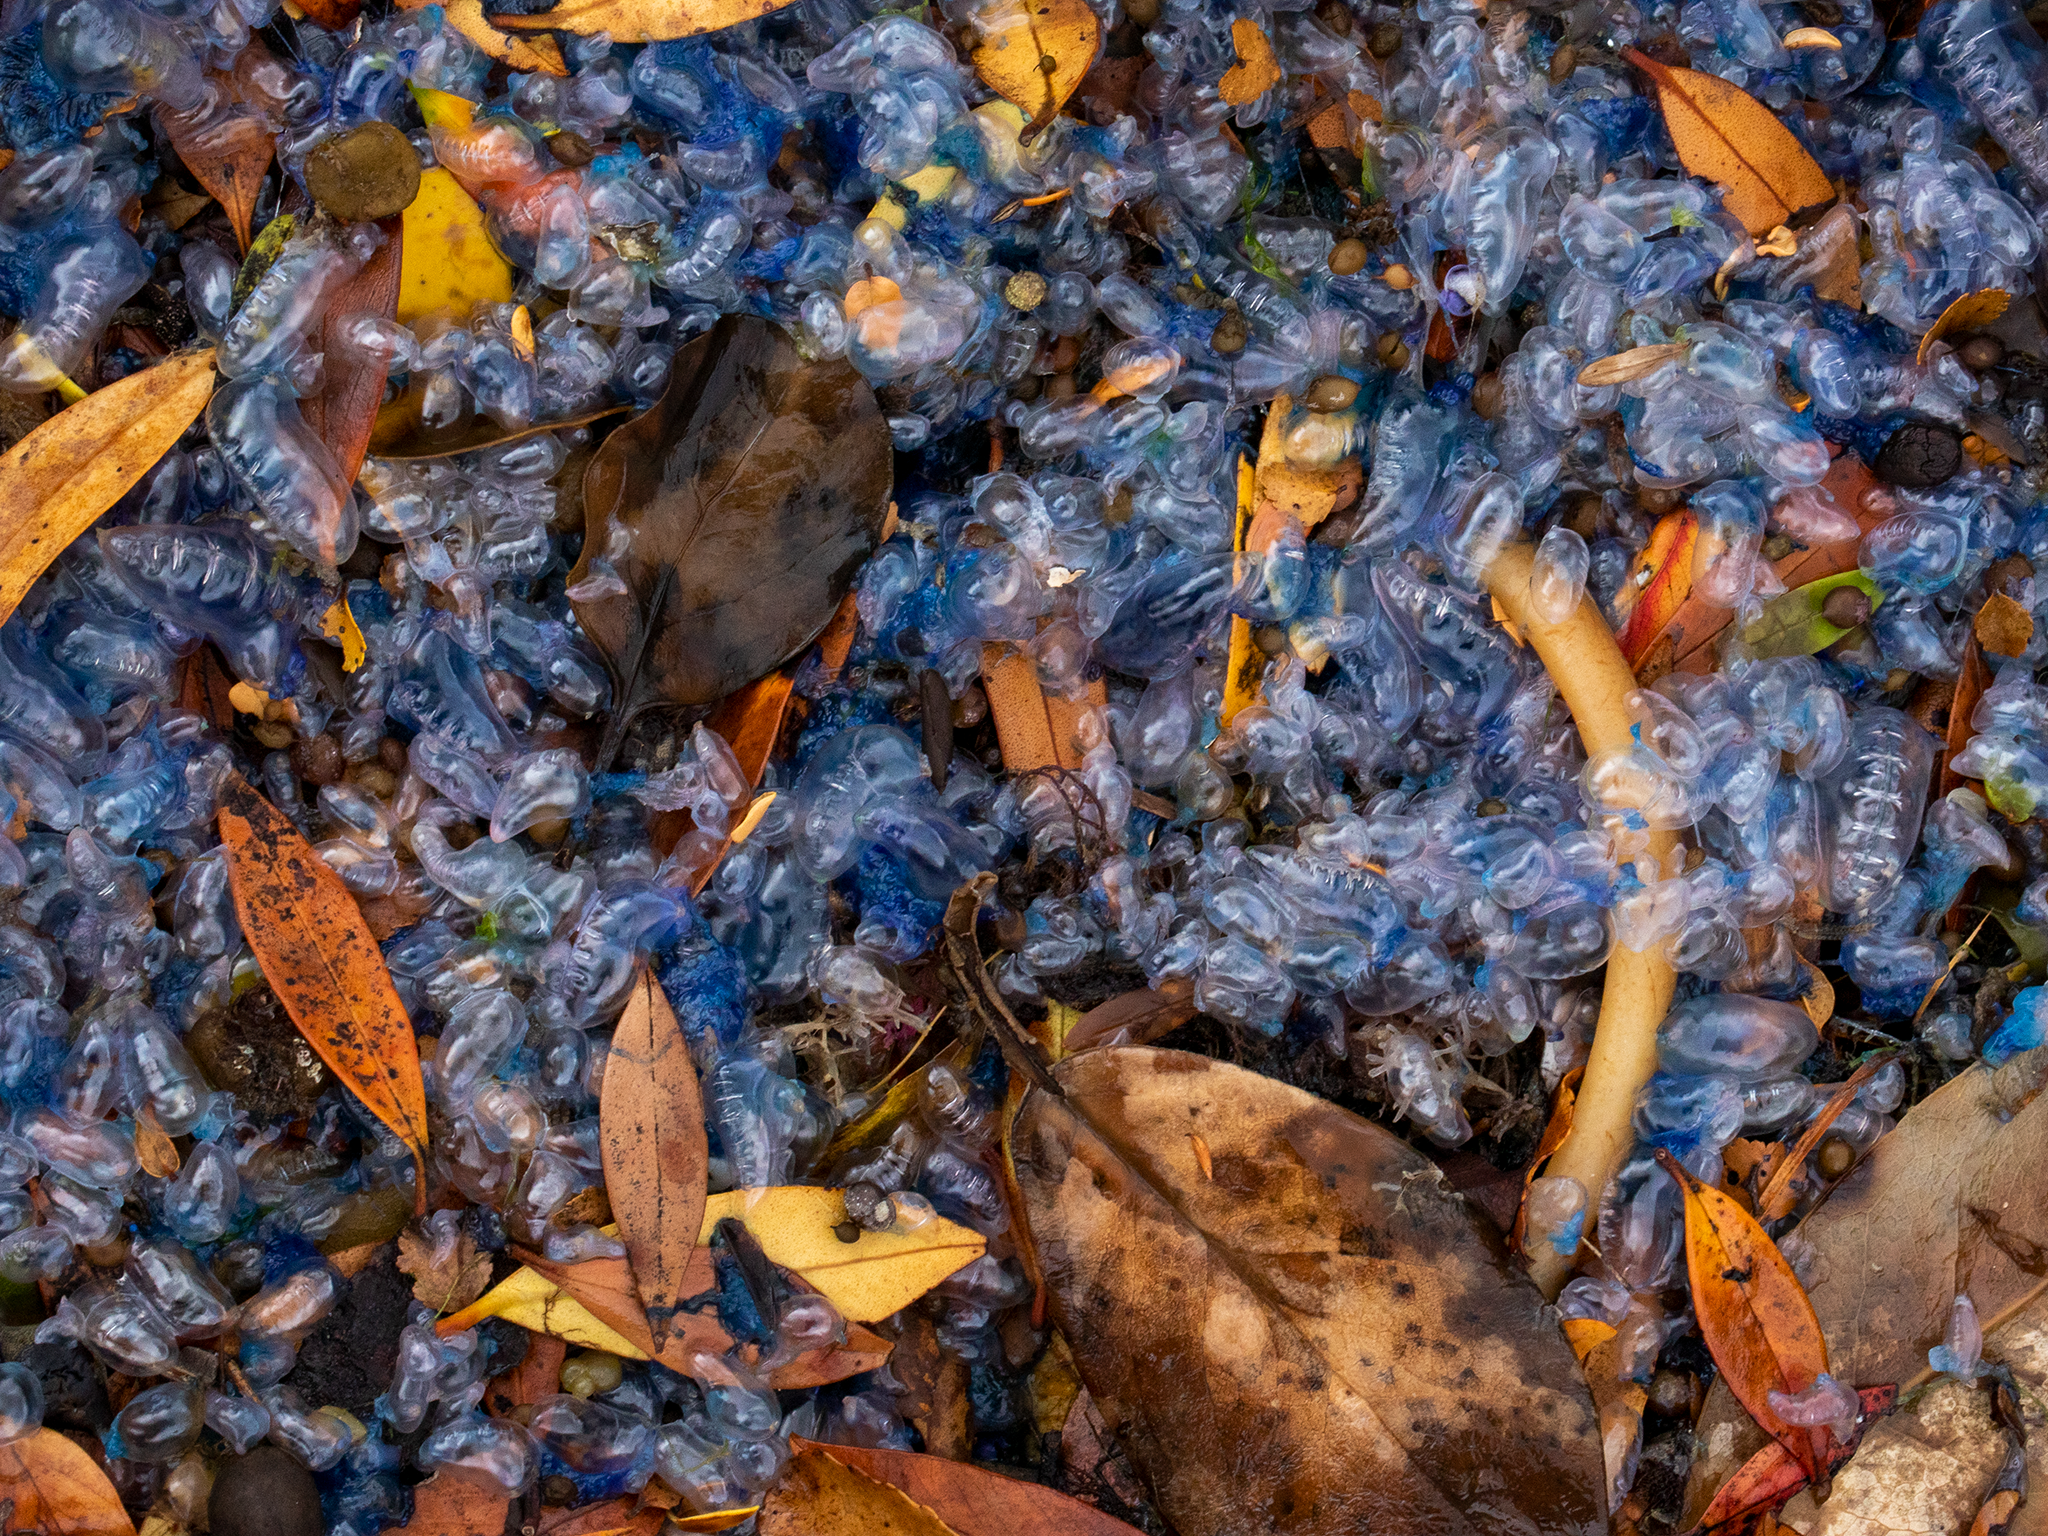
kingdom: Animalia
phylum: Cnidaria
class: Hydrozoa
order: Siphonophorae
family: Physaliidae
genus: Physalia
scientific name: Physalia physalis
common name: Portuguese man-of-war
